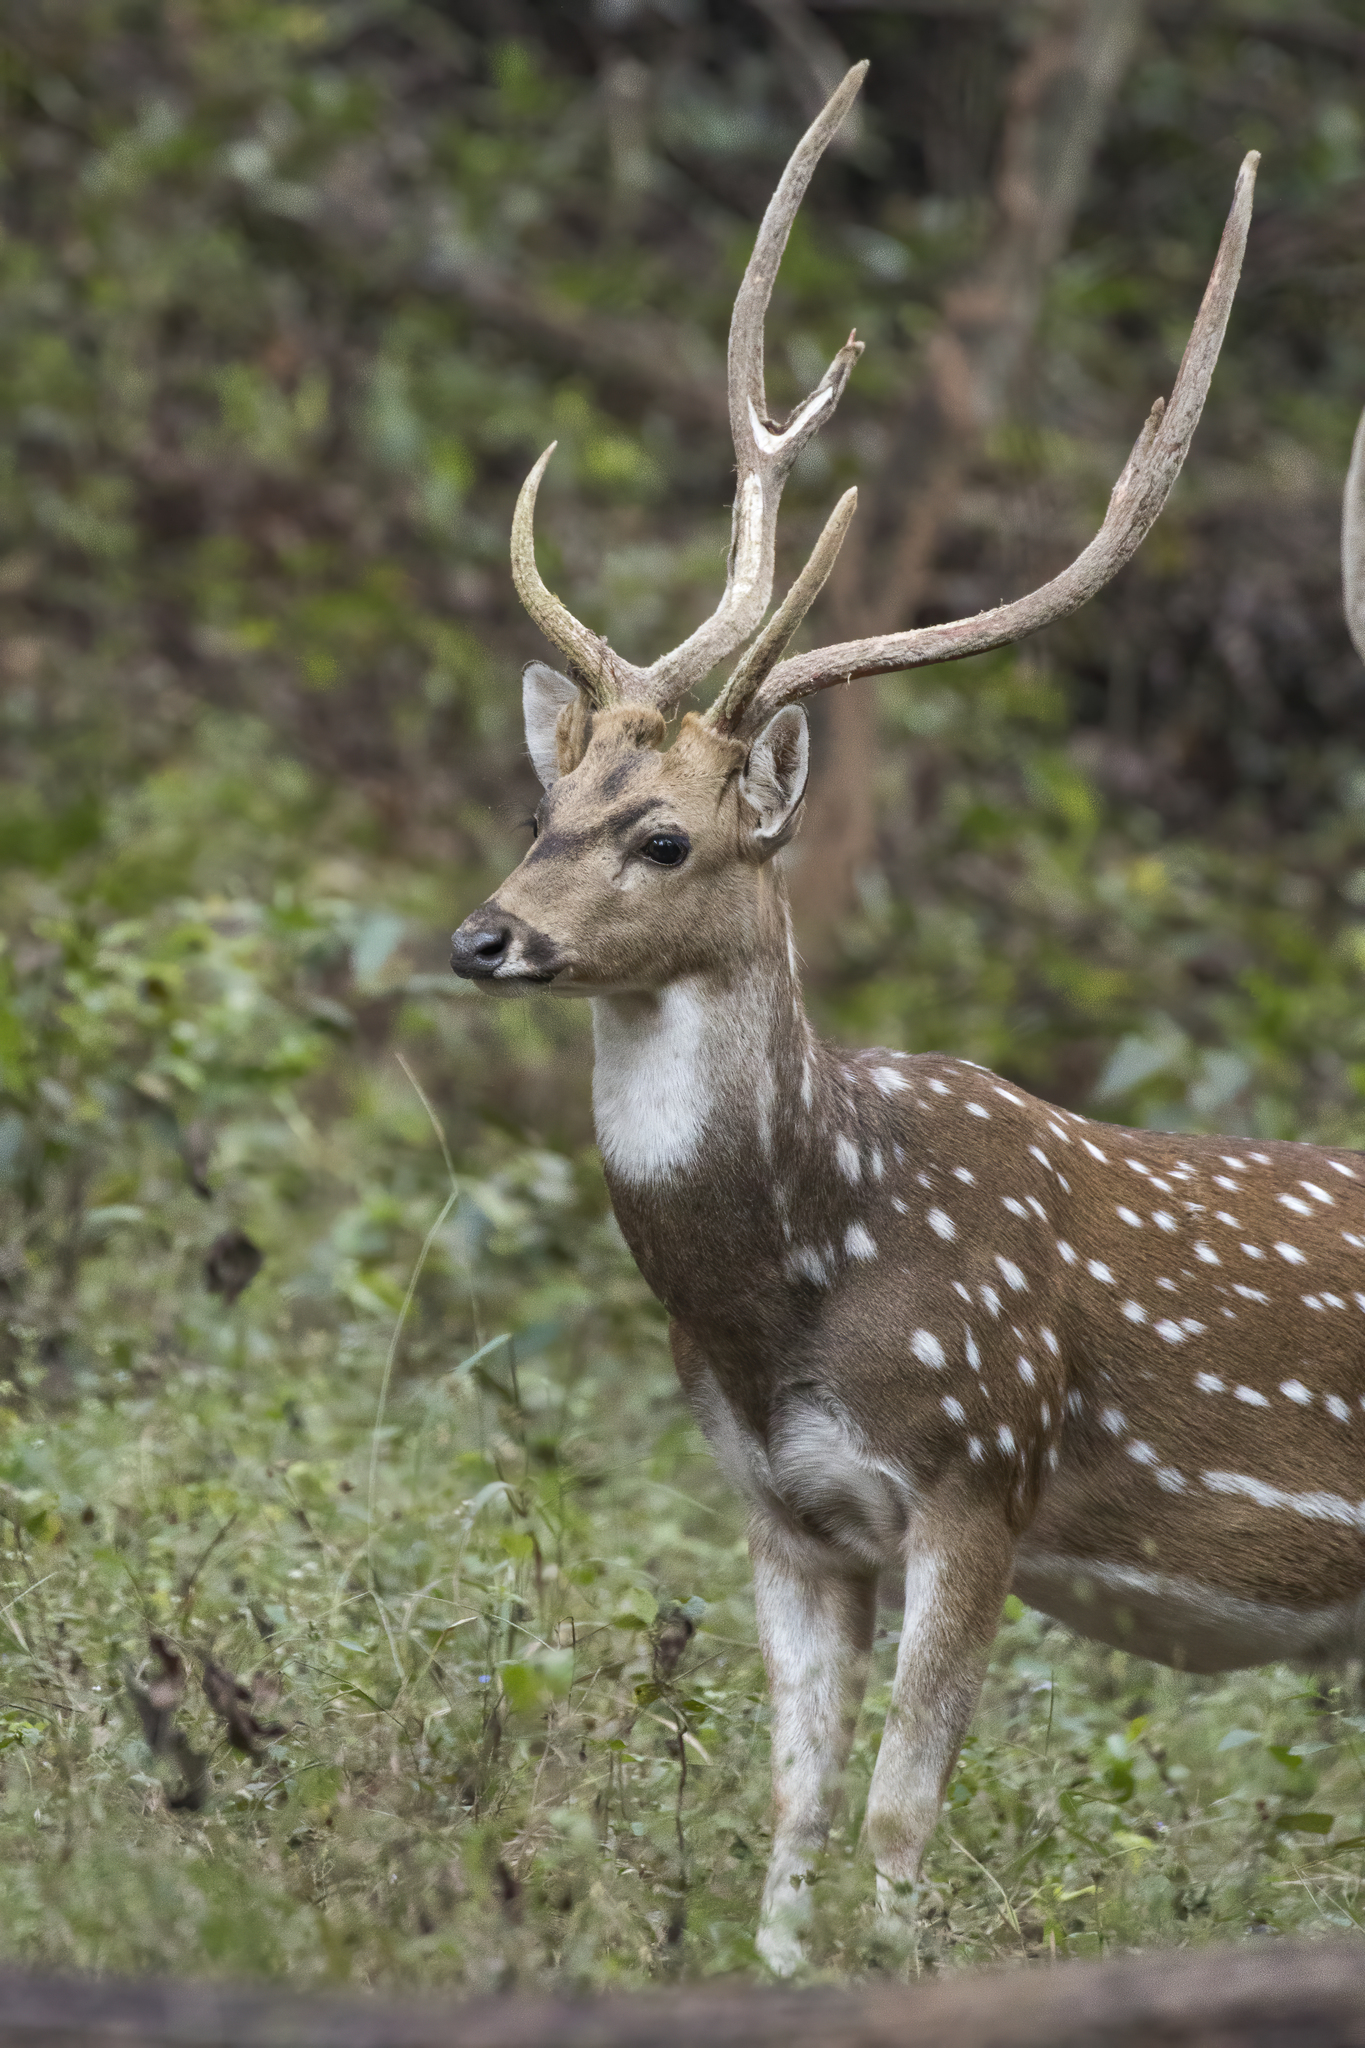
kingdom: Animalia
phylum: Chordata
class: Mammalia
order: Artiodactyla
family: Cervidae
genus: Axis
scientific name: Axis axis
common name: Chital
